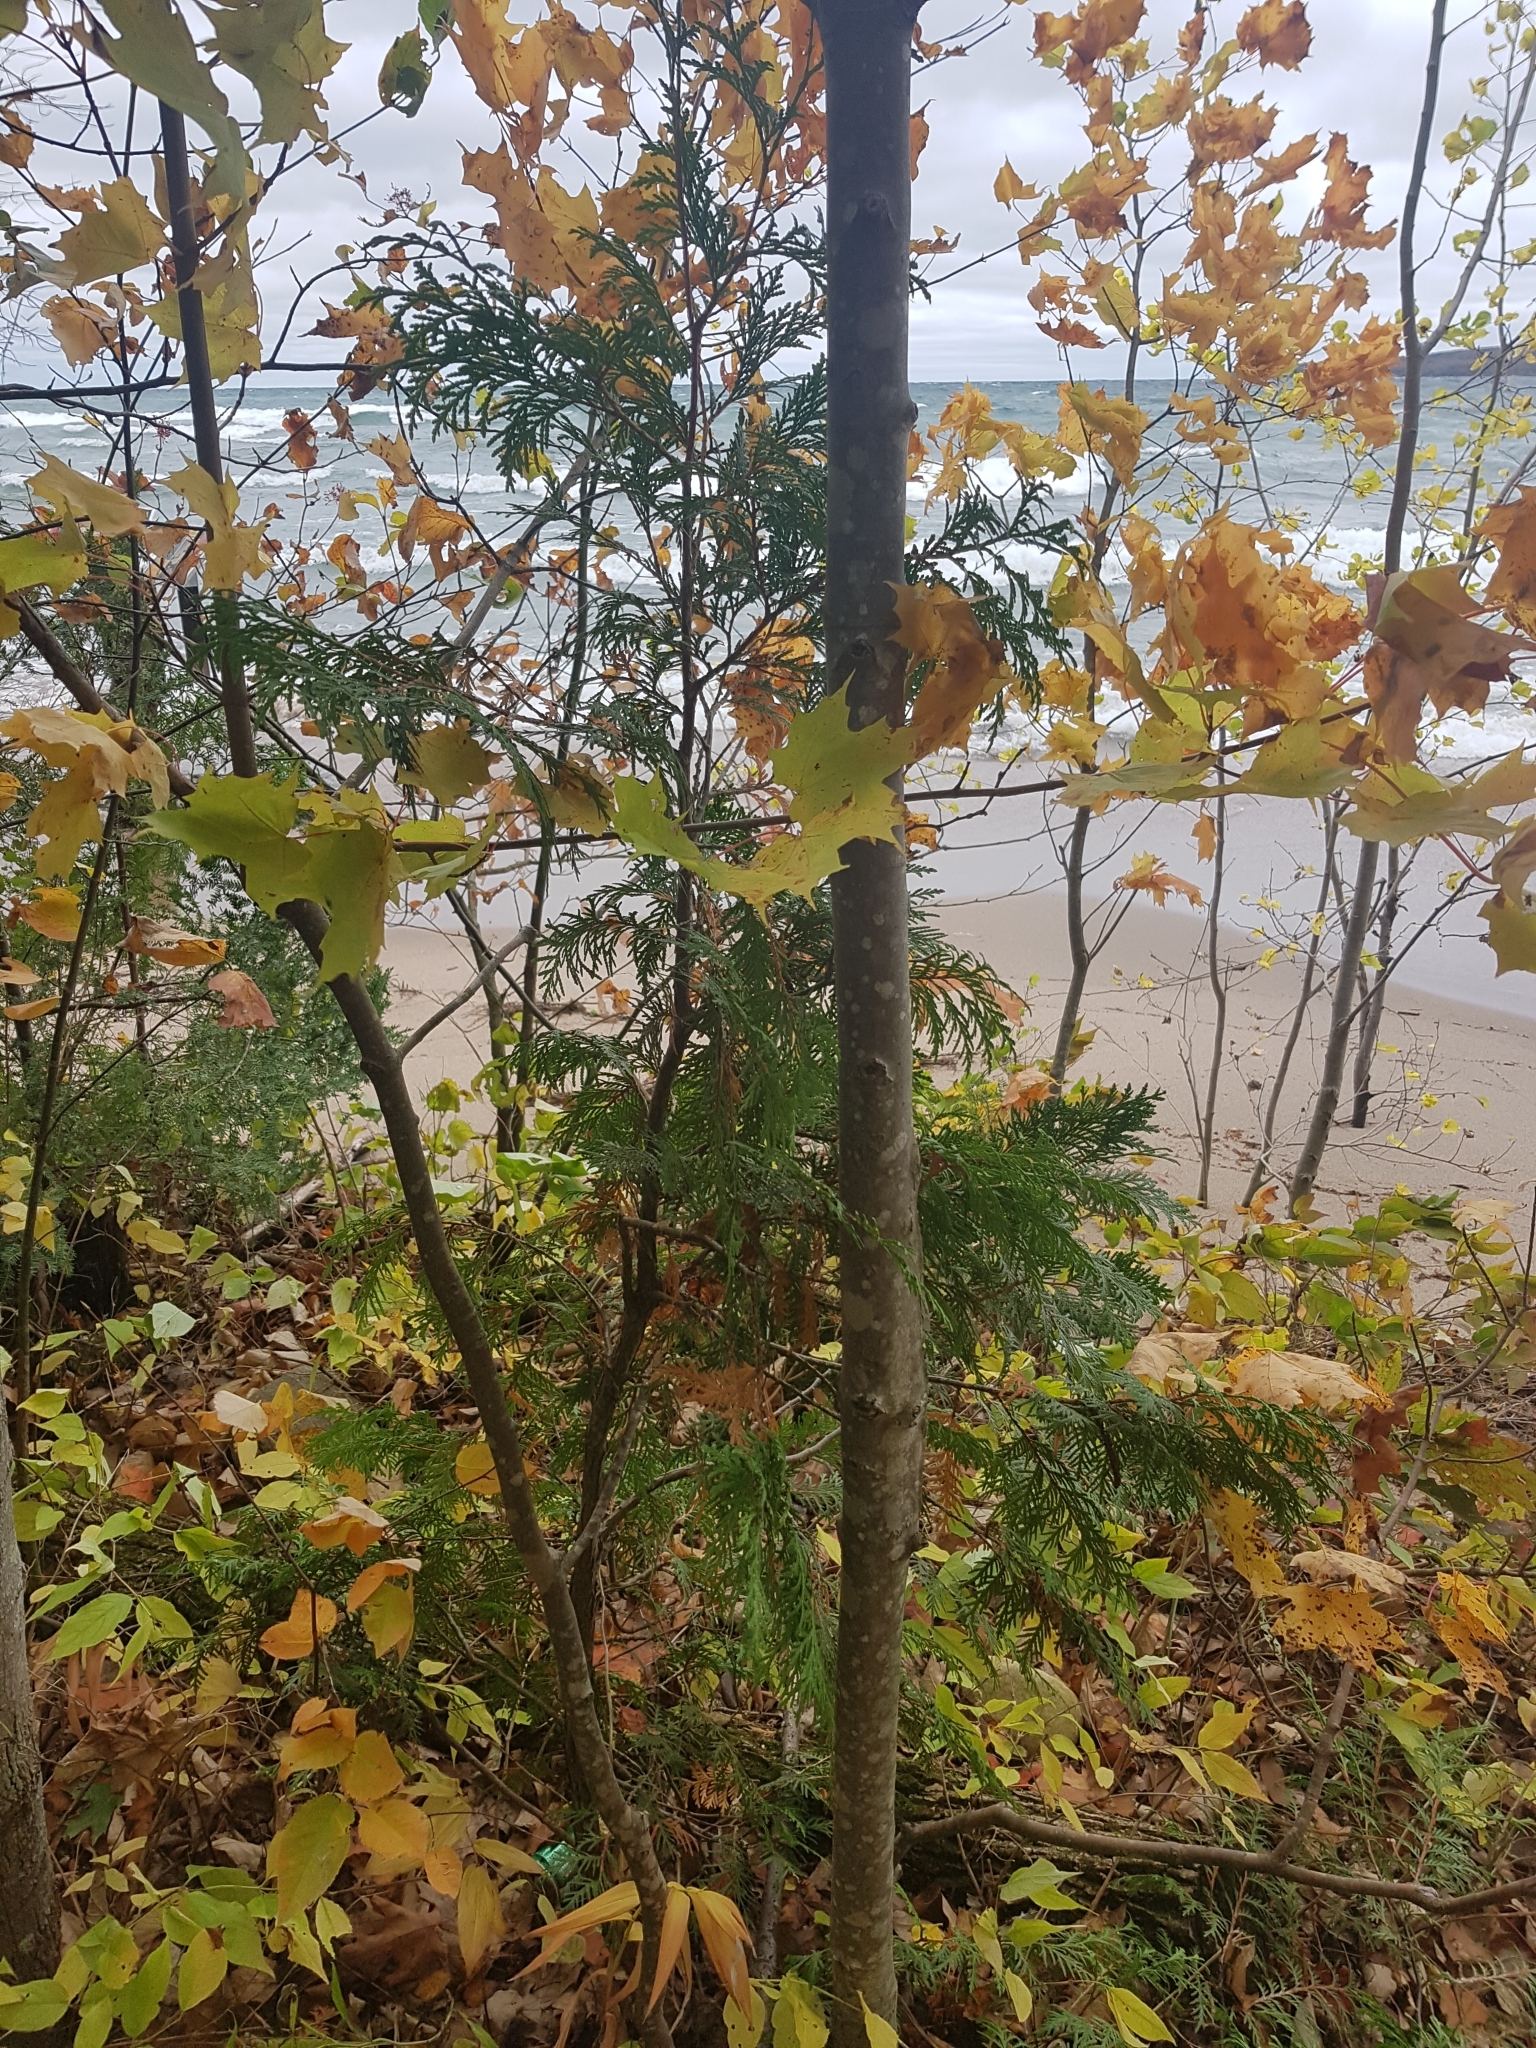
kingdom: Plantae
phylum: Tracheophyta
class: Pinopsida
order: Pinales
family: Cupressaceae
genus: Thuja
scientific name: Thuja occidentalis
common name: Northern white-cedar
